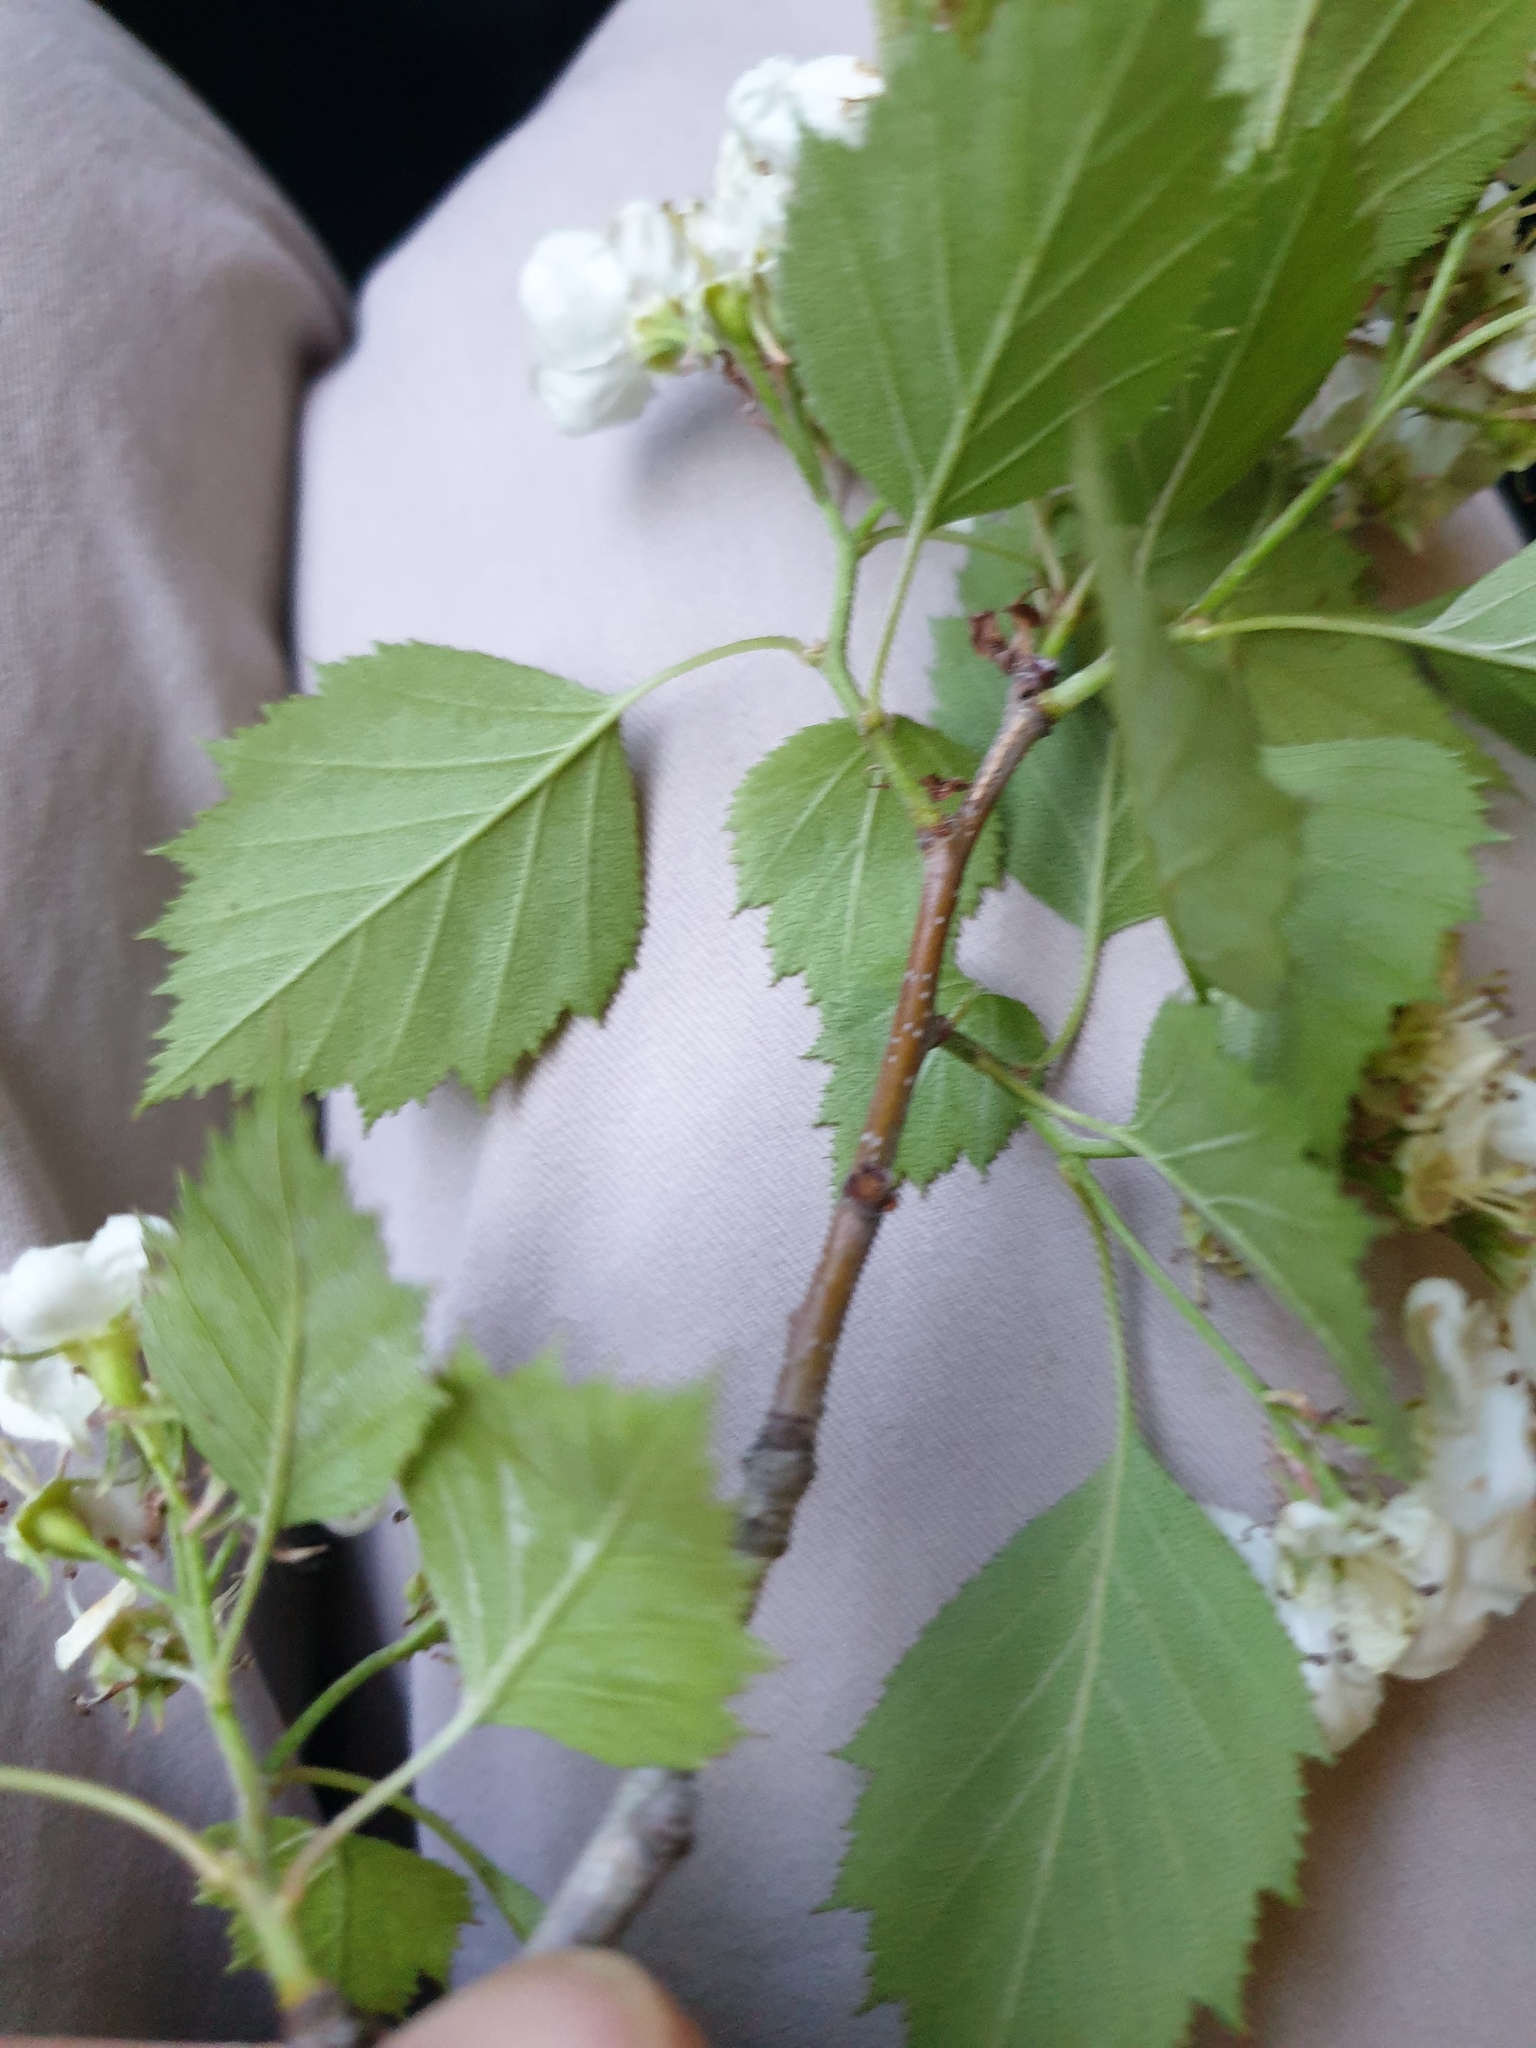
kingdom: Plantae
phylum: Tracheophyta
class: Magnoliopsida
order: Rosales
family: Rosaceae
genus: Crataegus
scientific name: Crataegus macrosperma
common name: Variable hawthorn
